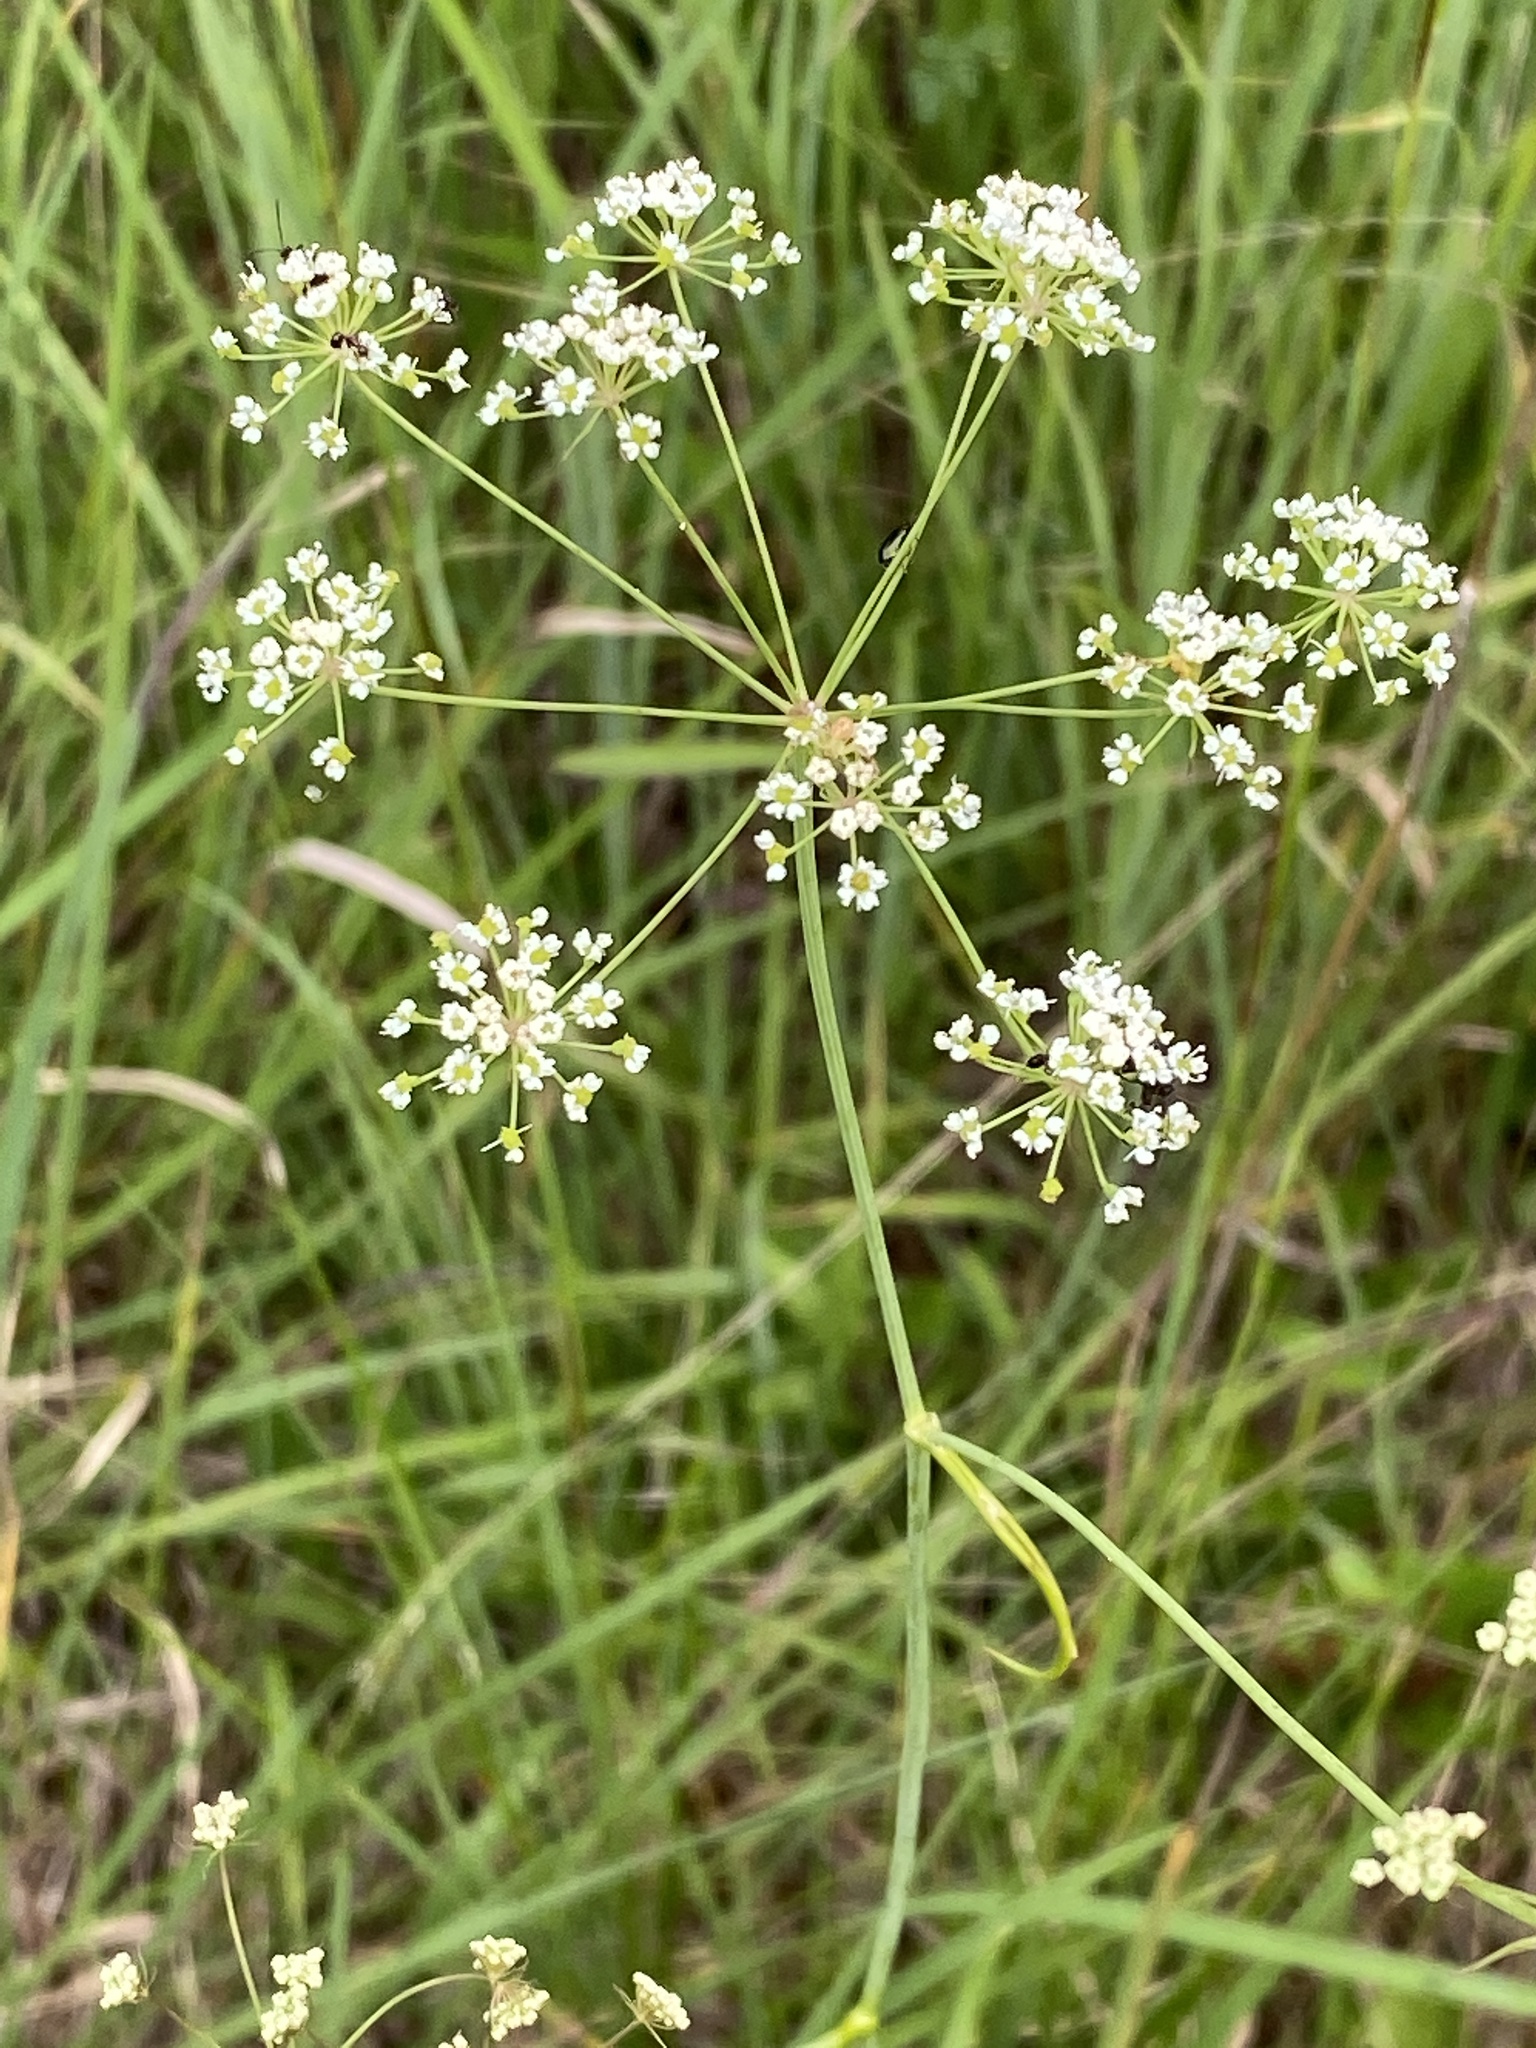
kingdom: Plantae
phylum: Tracheophyta
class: Magnoliopsida
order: Apiales
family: Apiaceae
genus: Oxypolis
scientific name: Oxypolis rigidior
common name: Cowbane
